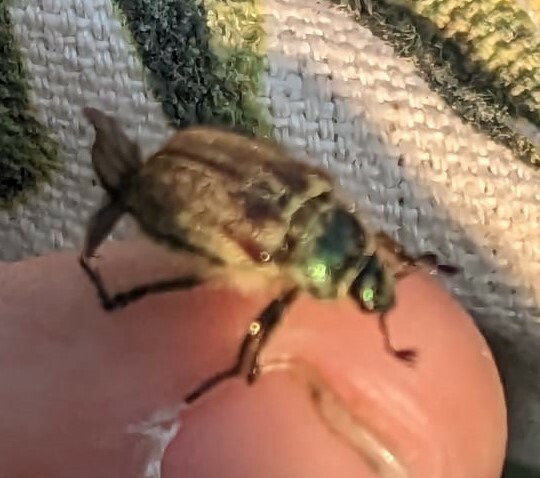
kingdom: Animalia
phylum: Arthropoda
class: Insecta
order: Coleoptera
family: Scarabaeidae
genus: Phyllopertha
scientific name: Phyllopertha horticola
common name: Garden chafer
